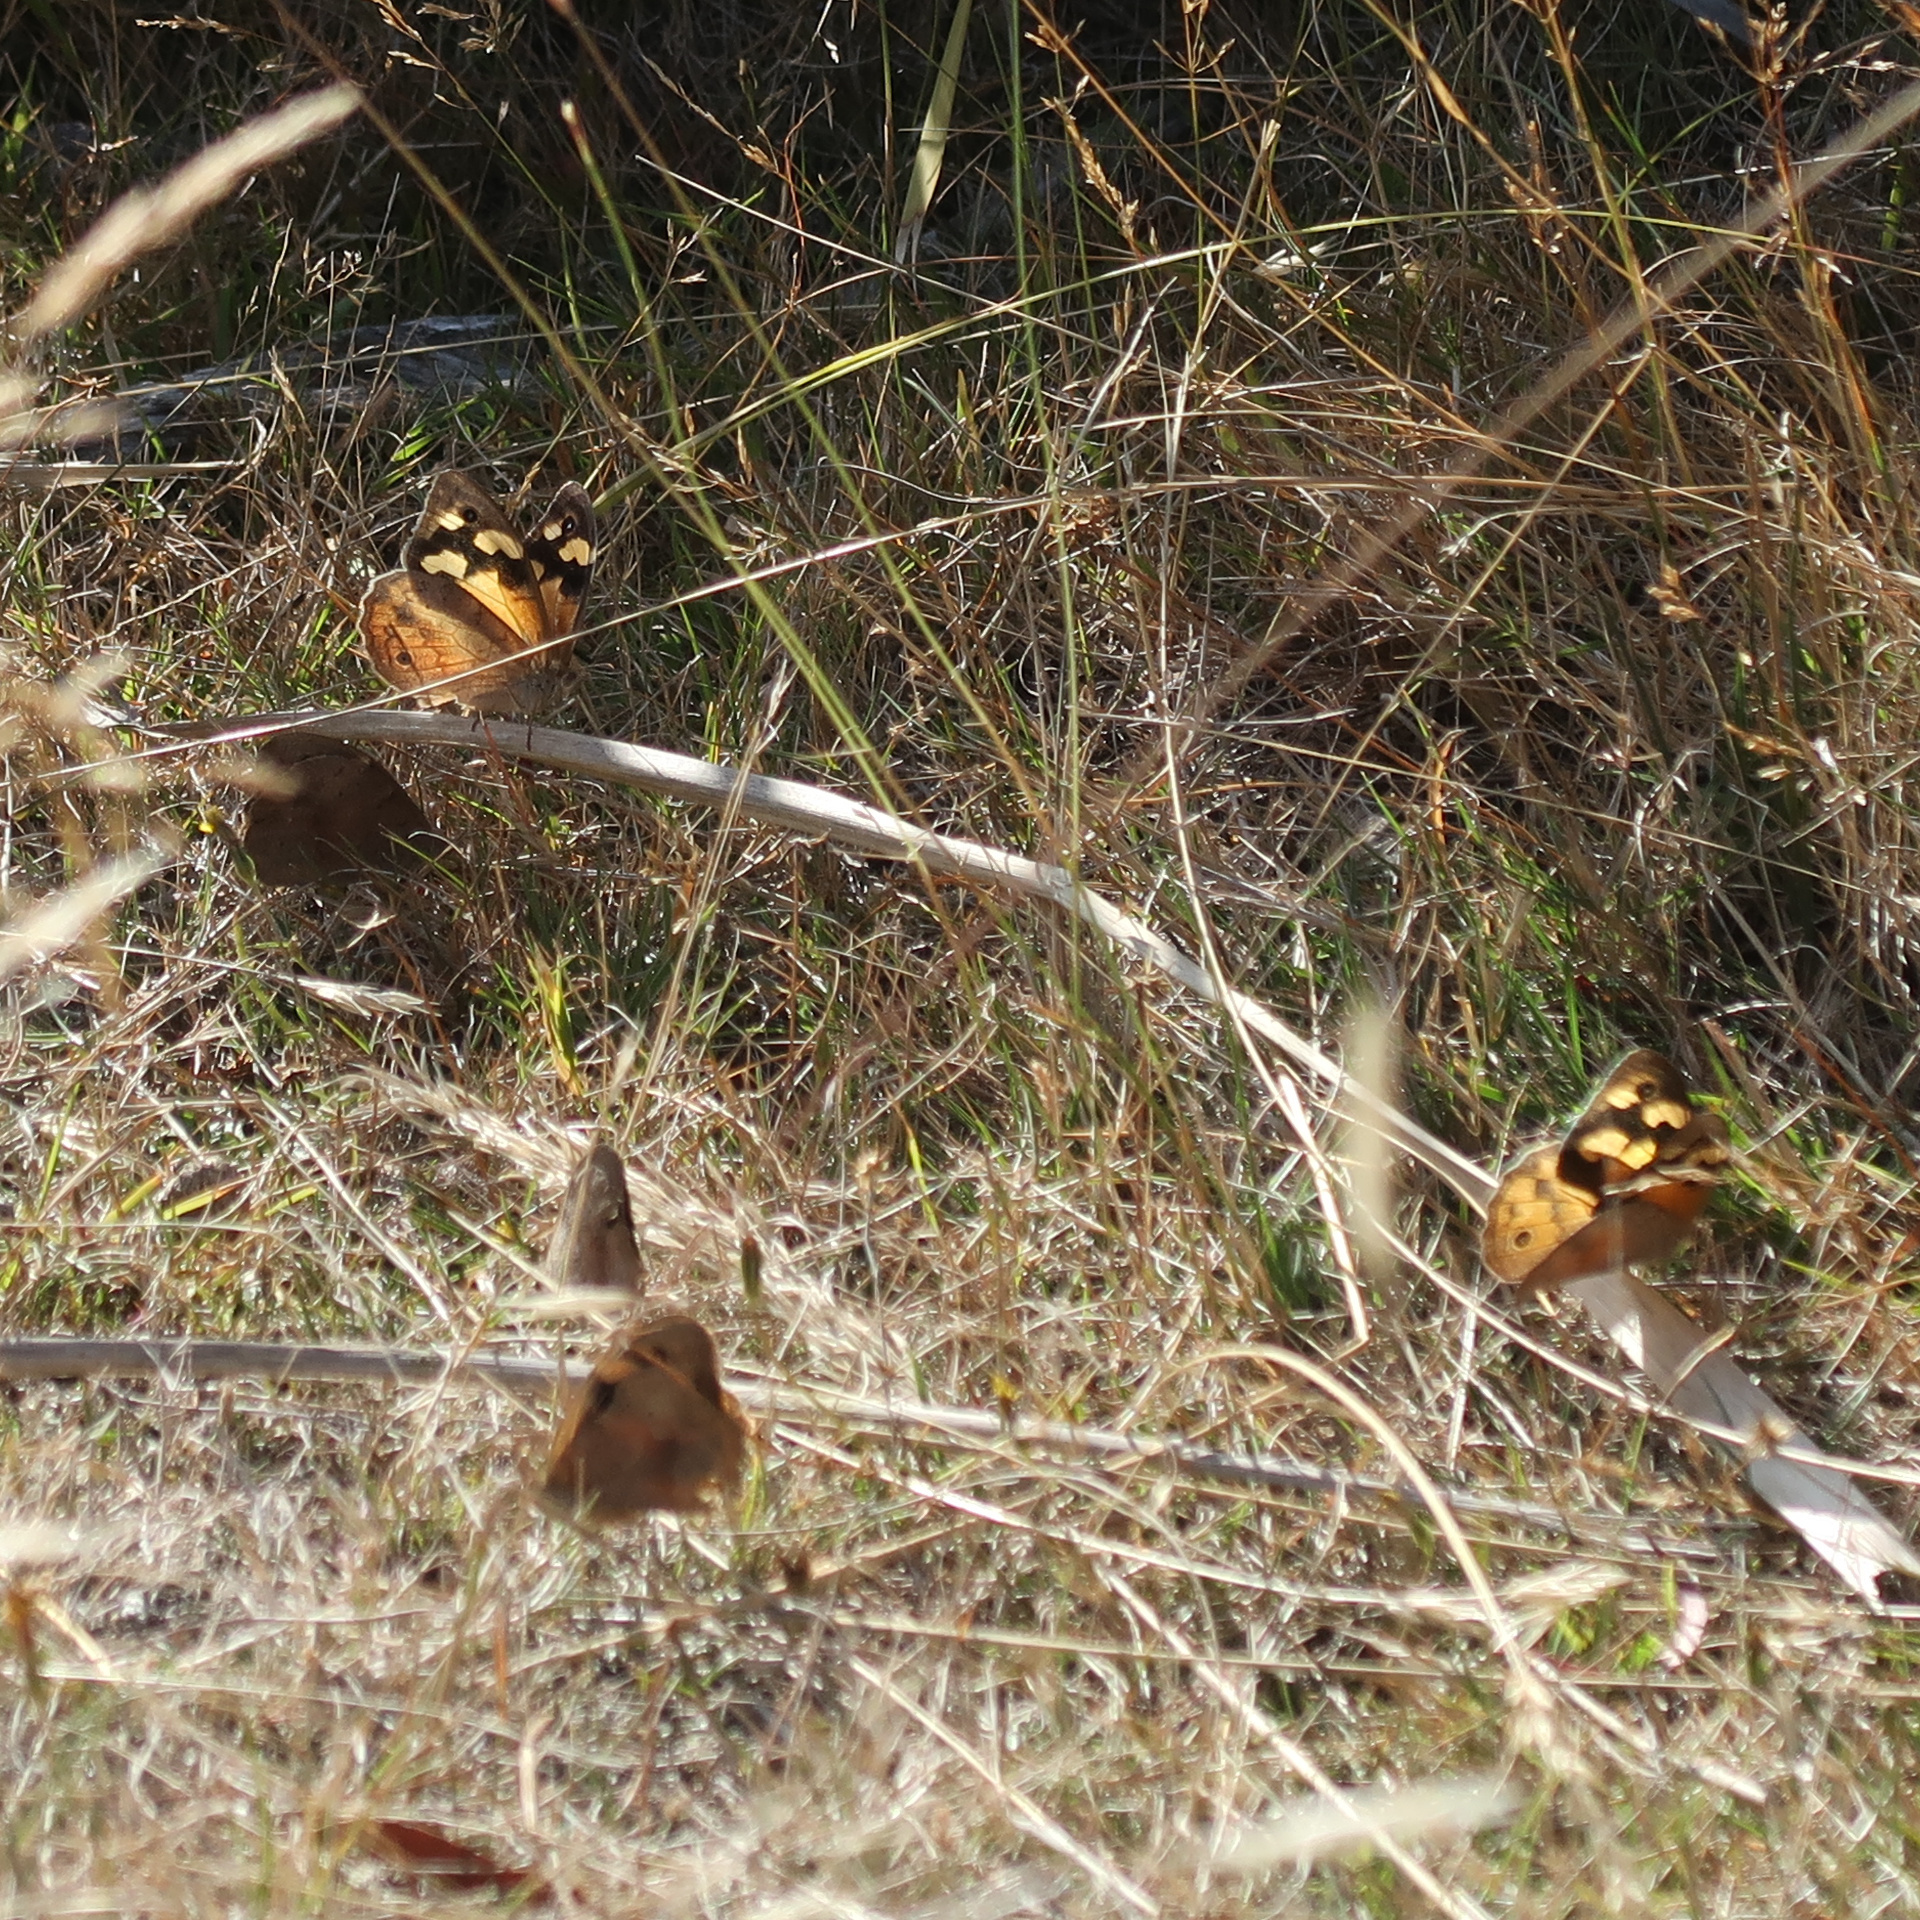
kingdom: Animalia
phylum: Arthropoda
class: Insecta
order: Lepidoptera
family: Nymphalidae
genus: Heteronympha
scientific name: Heteronympha merope
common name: Common brown
